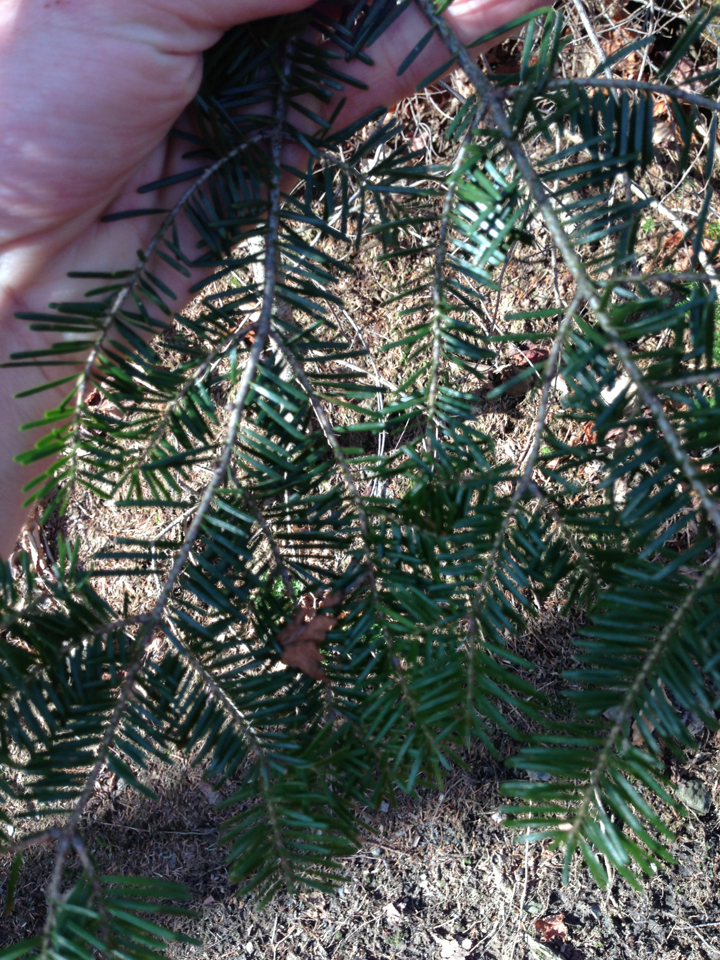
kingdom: Plantae
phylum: Tracheophyta
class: Pinopsida
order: Pinales
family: Pinaceae
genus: Abies
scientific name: Abies balsamea
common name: Balsam fir
